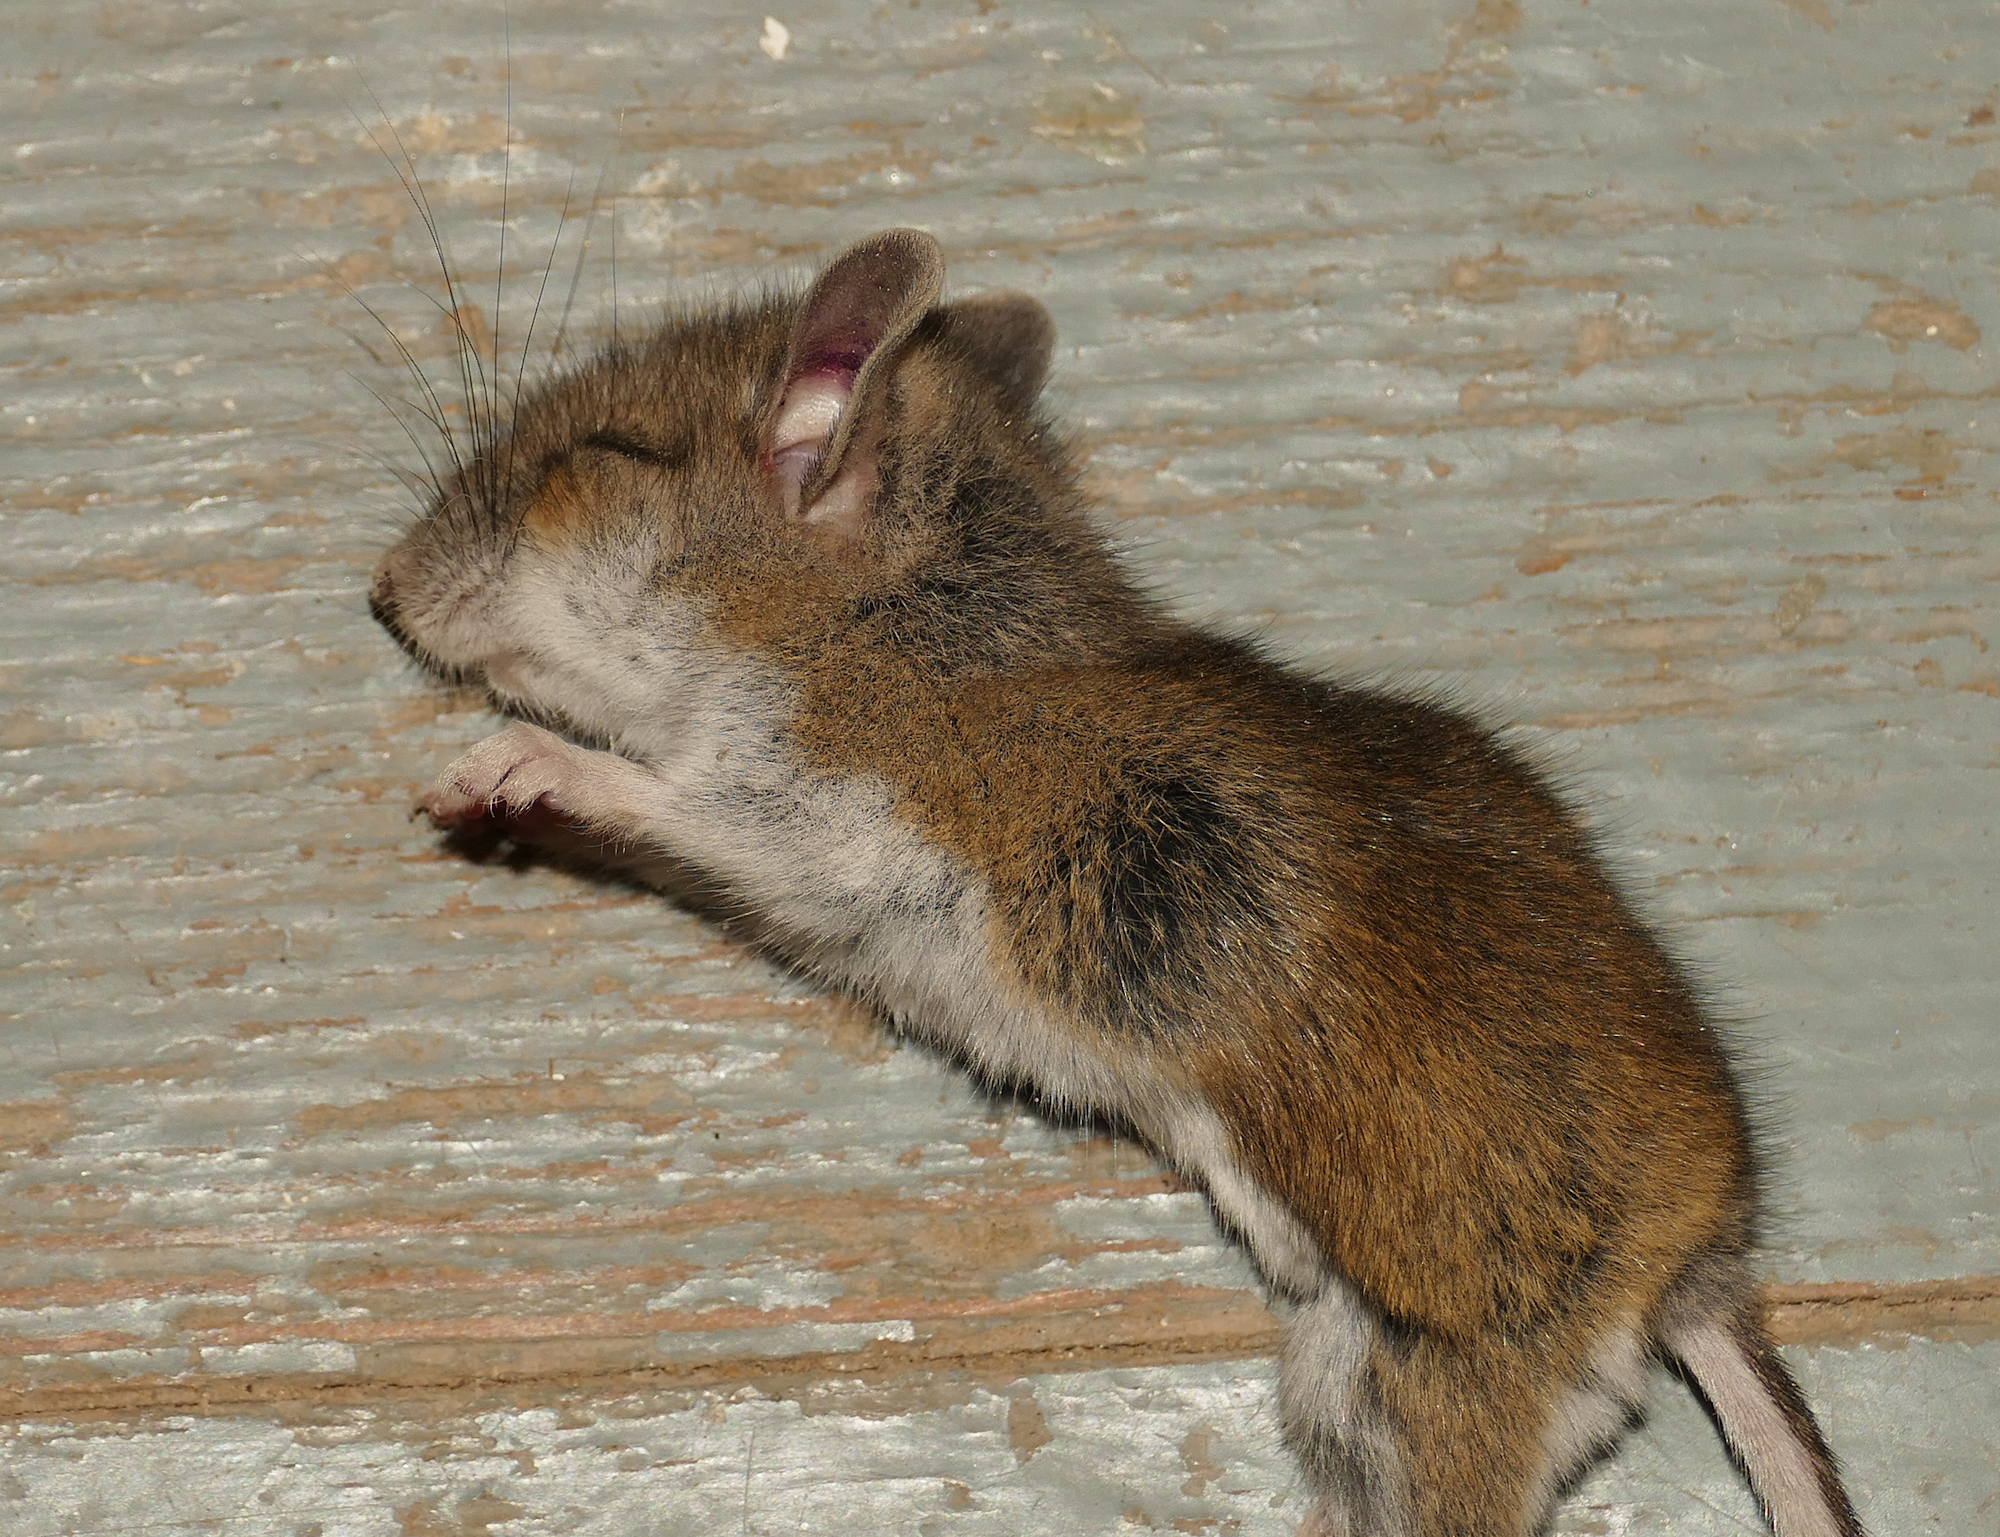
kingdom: Animalia
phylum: Chordata
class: Mammalia
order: Rodentia
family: Cricetidae
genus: Peromyscus
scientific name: Peromyscus maniculatus
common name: Deer mouse
